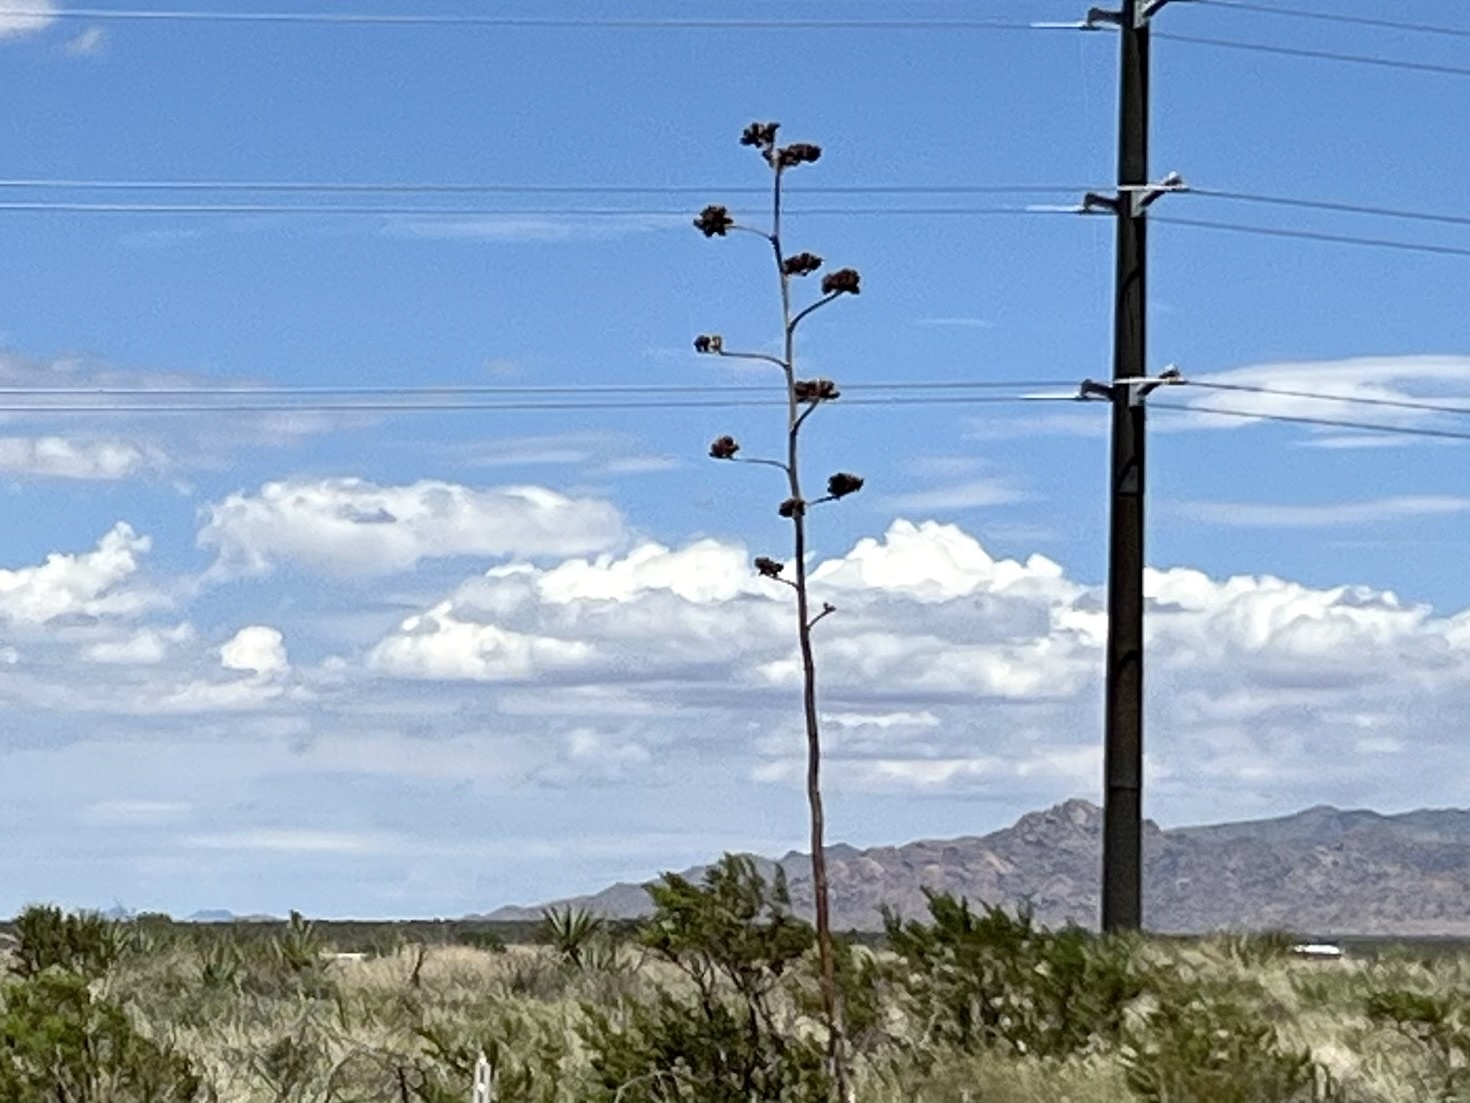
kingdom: Plantae
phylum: Tracheophyta
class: Liliopsida
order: Asparagales
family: Asparagaceae
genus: Agave
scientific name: Agave palmeri
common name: Palmer agave
